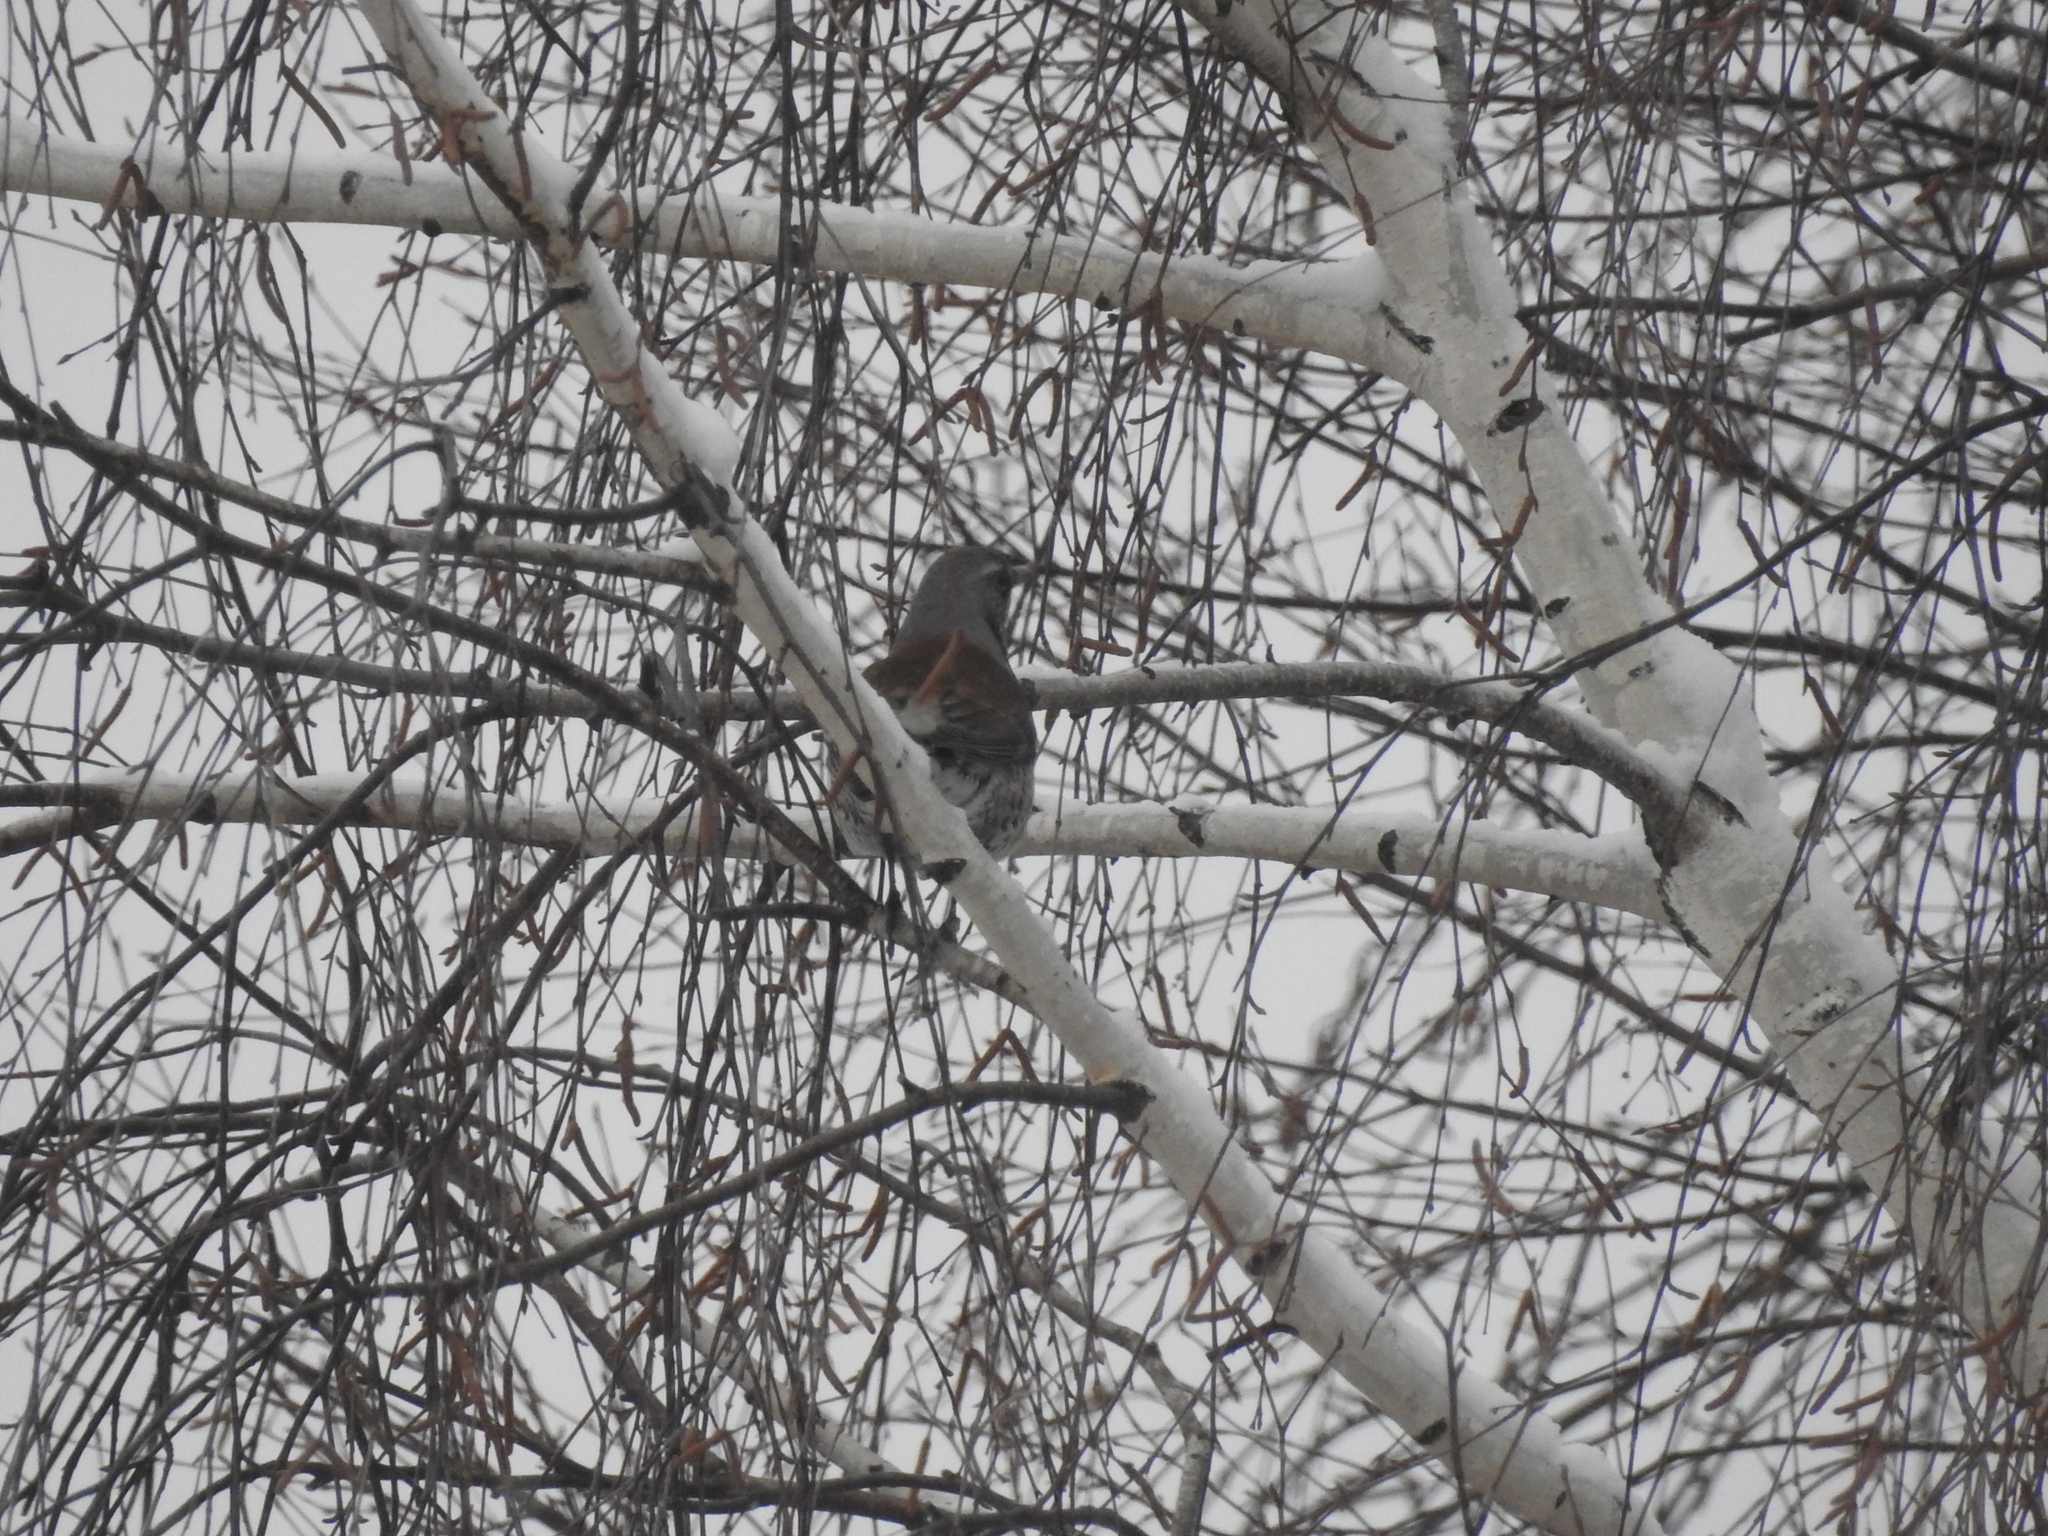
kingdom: Animalia
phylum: Chordata
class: Aves
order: Passeriformes
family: Turdidae
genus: Turdus
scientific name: Turdus pilaris
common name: Fieldfare
